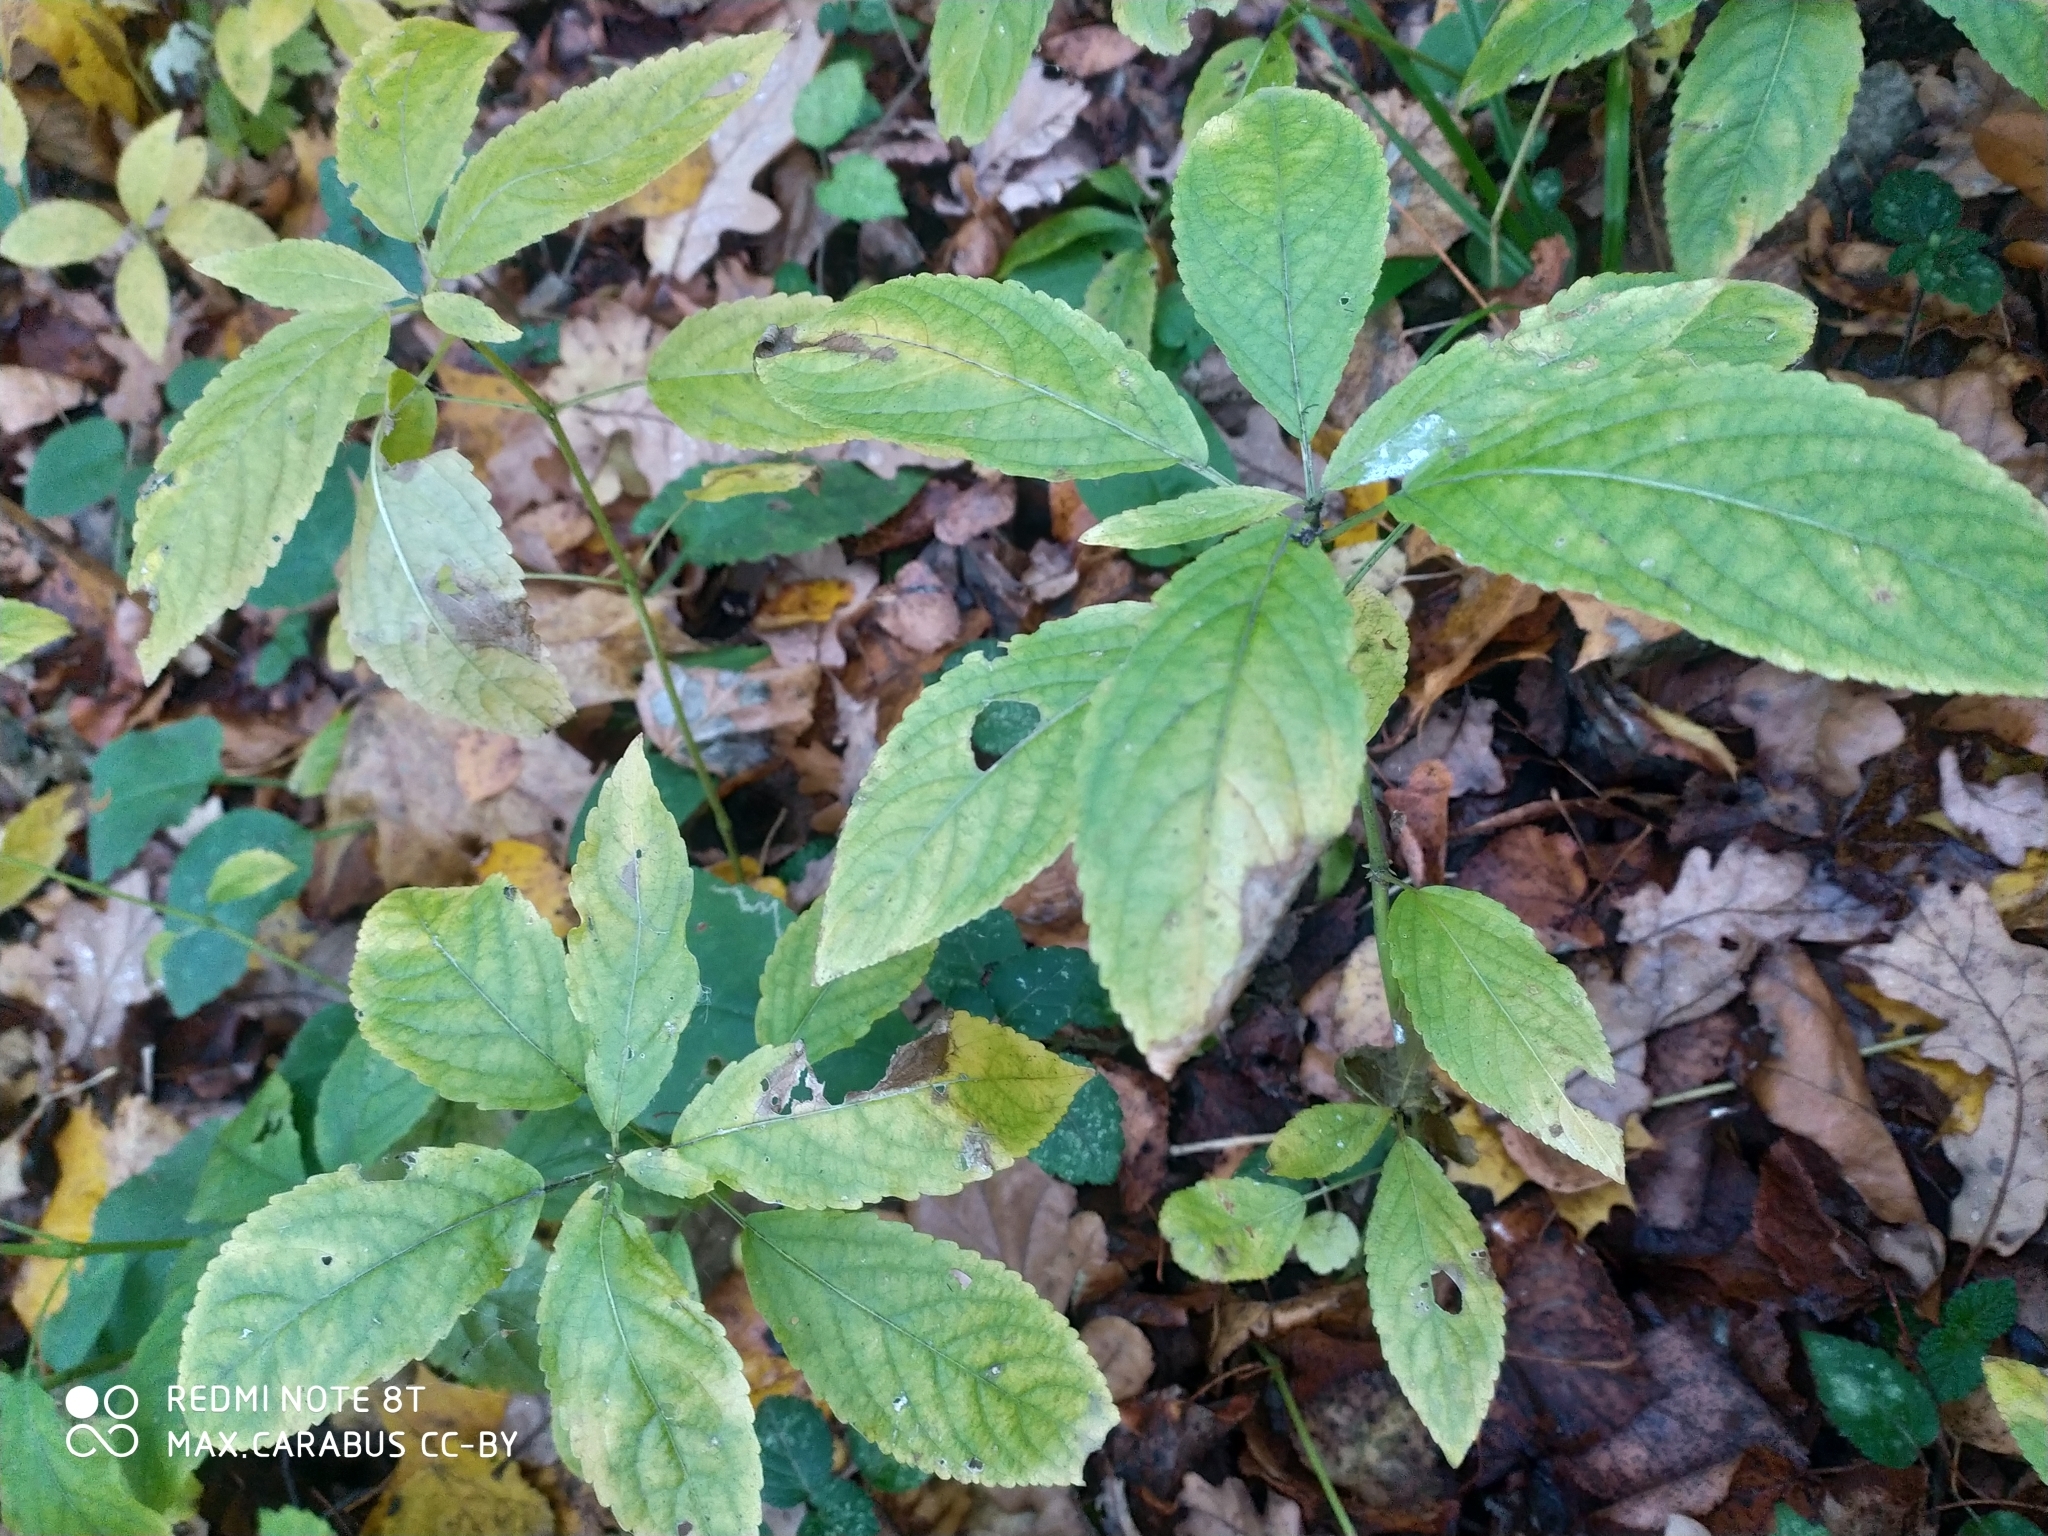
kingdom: Plantae
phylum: Tracheophyta
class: Magnoliopsida
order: Malpighiales
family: Euphorbiaceae
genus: Mercurialis
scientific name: Mercurialis perennis
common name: Dog mercury
